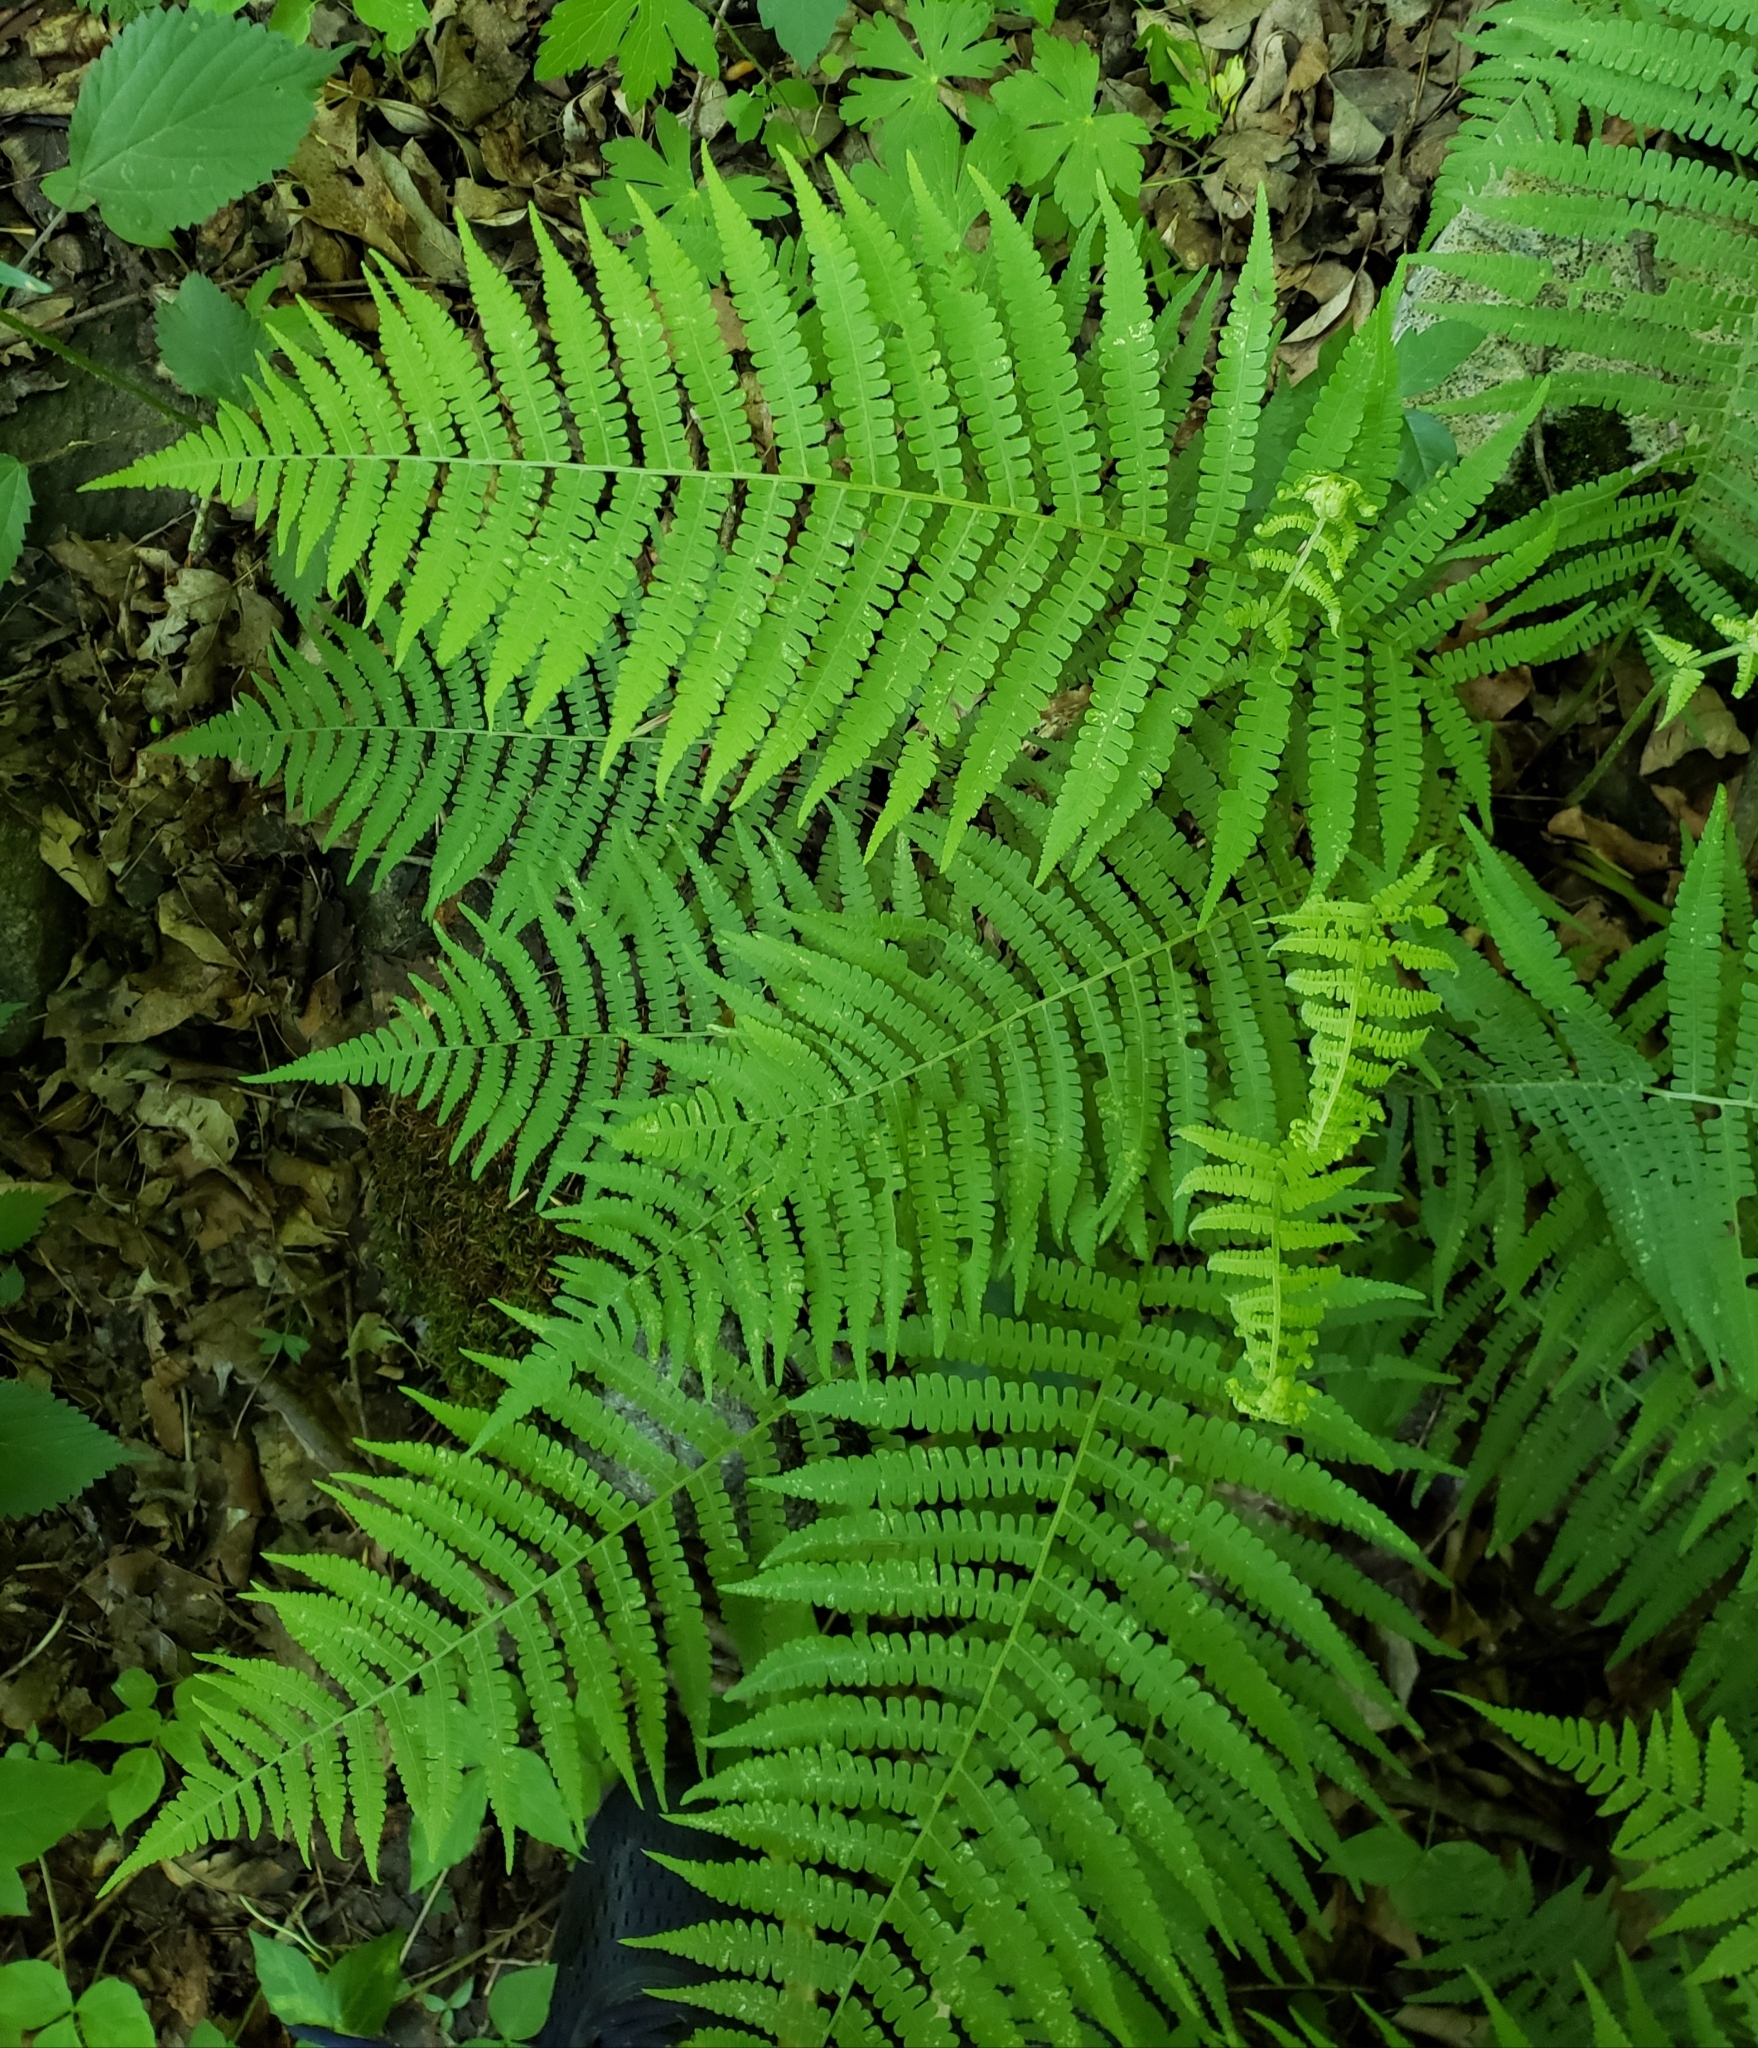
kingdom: Plantae
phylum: Tracheophyta
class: Polypodiopsida
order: Polypodiales
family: Athyriaceae
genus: Deparia
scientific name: Deparia acrostichoides
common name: Silver false spleenwort
